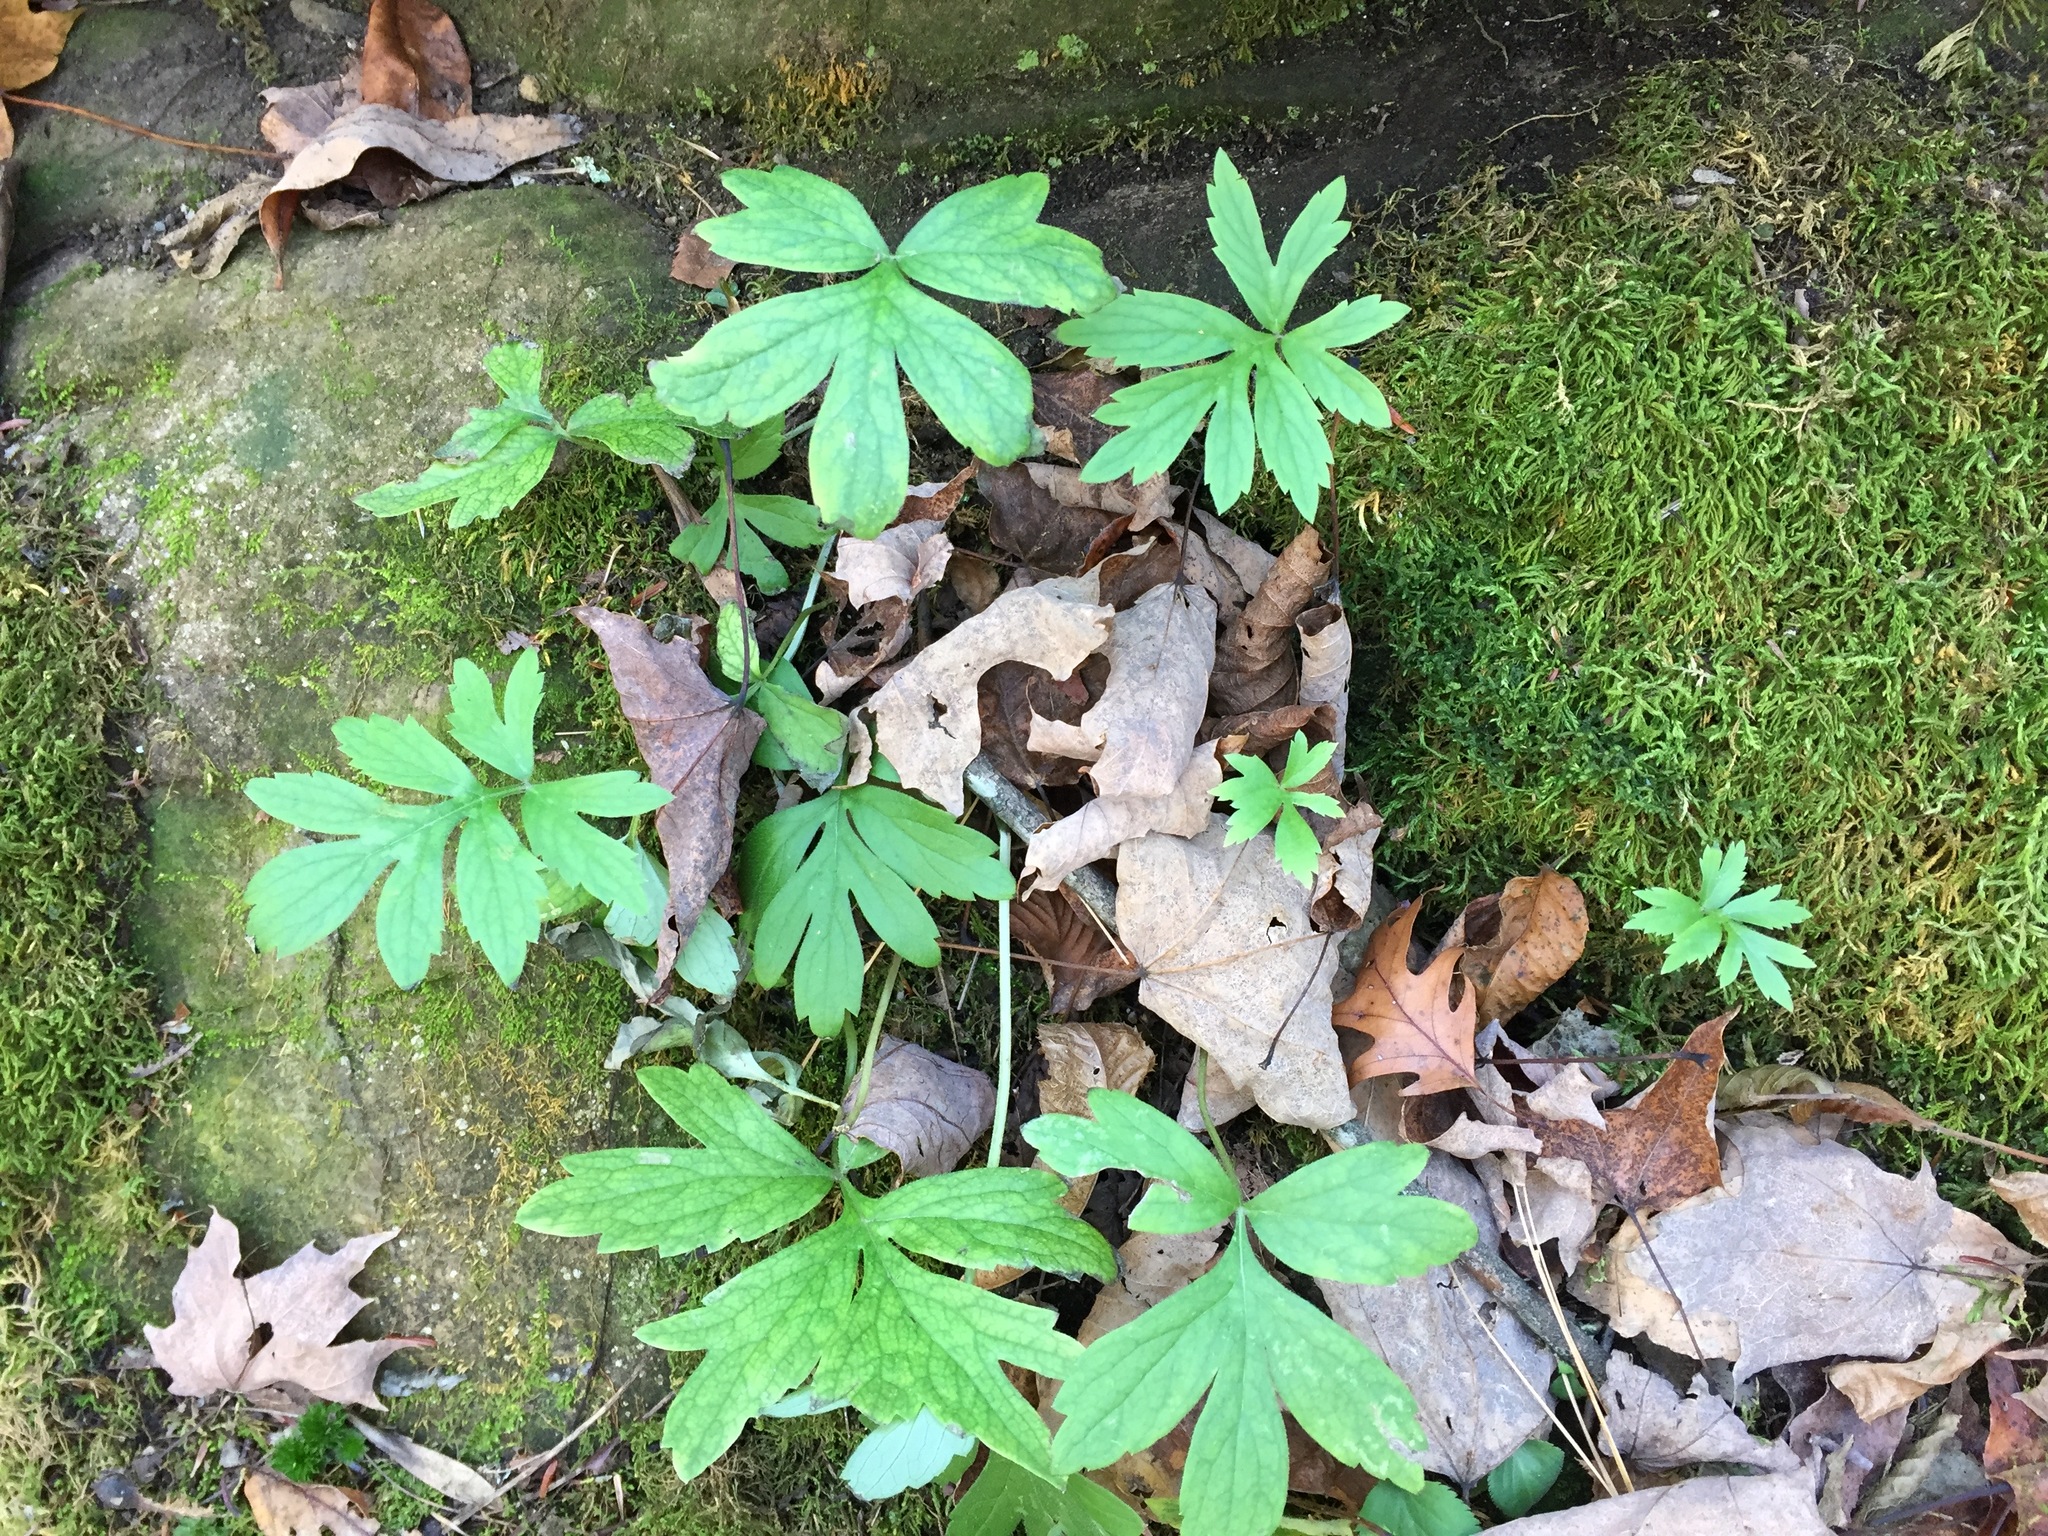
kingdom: Plantae
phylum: Tracheophyta
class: Magnoliopsida
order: Boraginales
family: Hydrophyllaceae
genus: Hydrophyllum
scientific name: Hydrophyllum virginianum
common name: Virginia waterleaf
